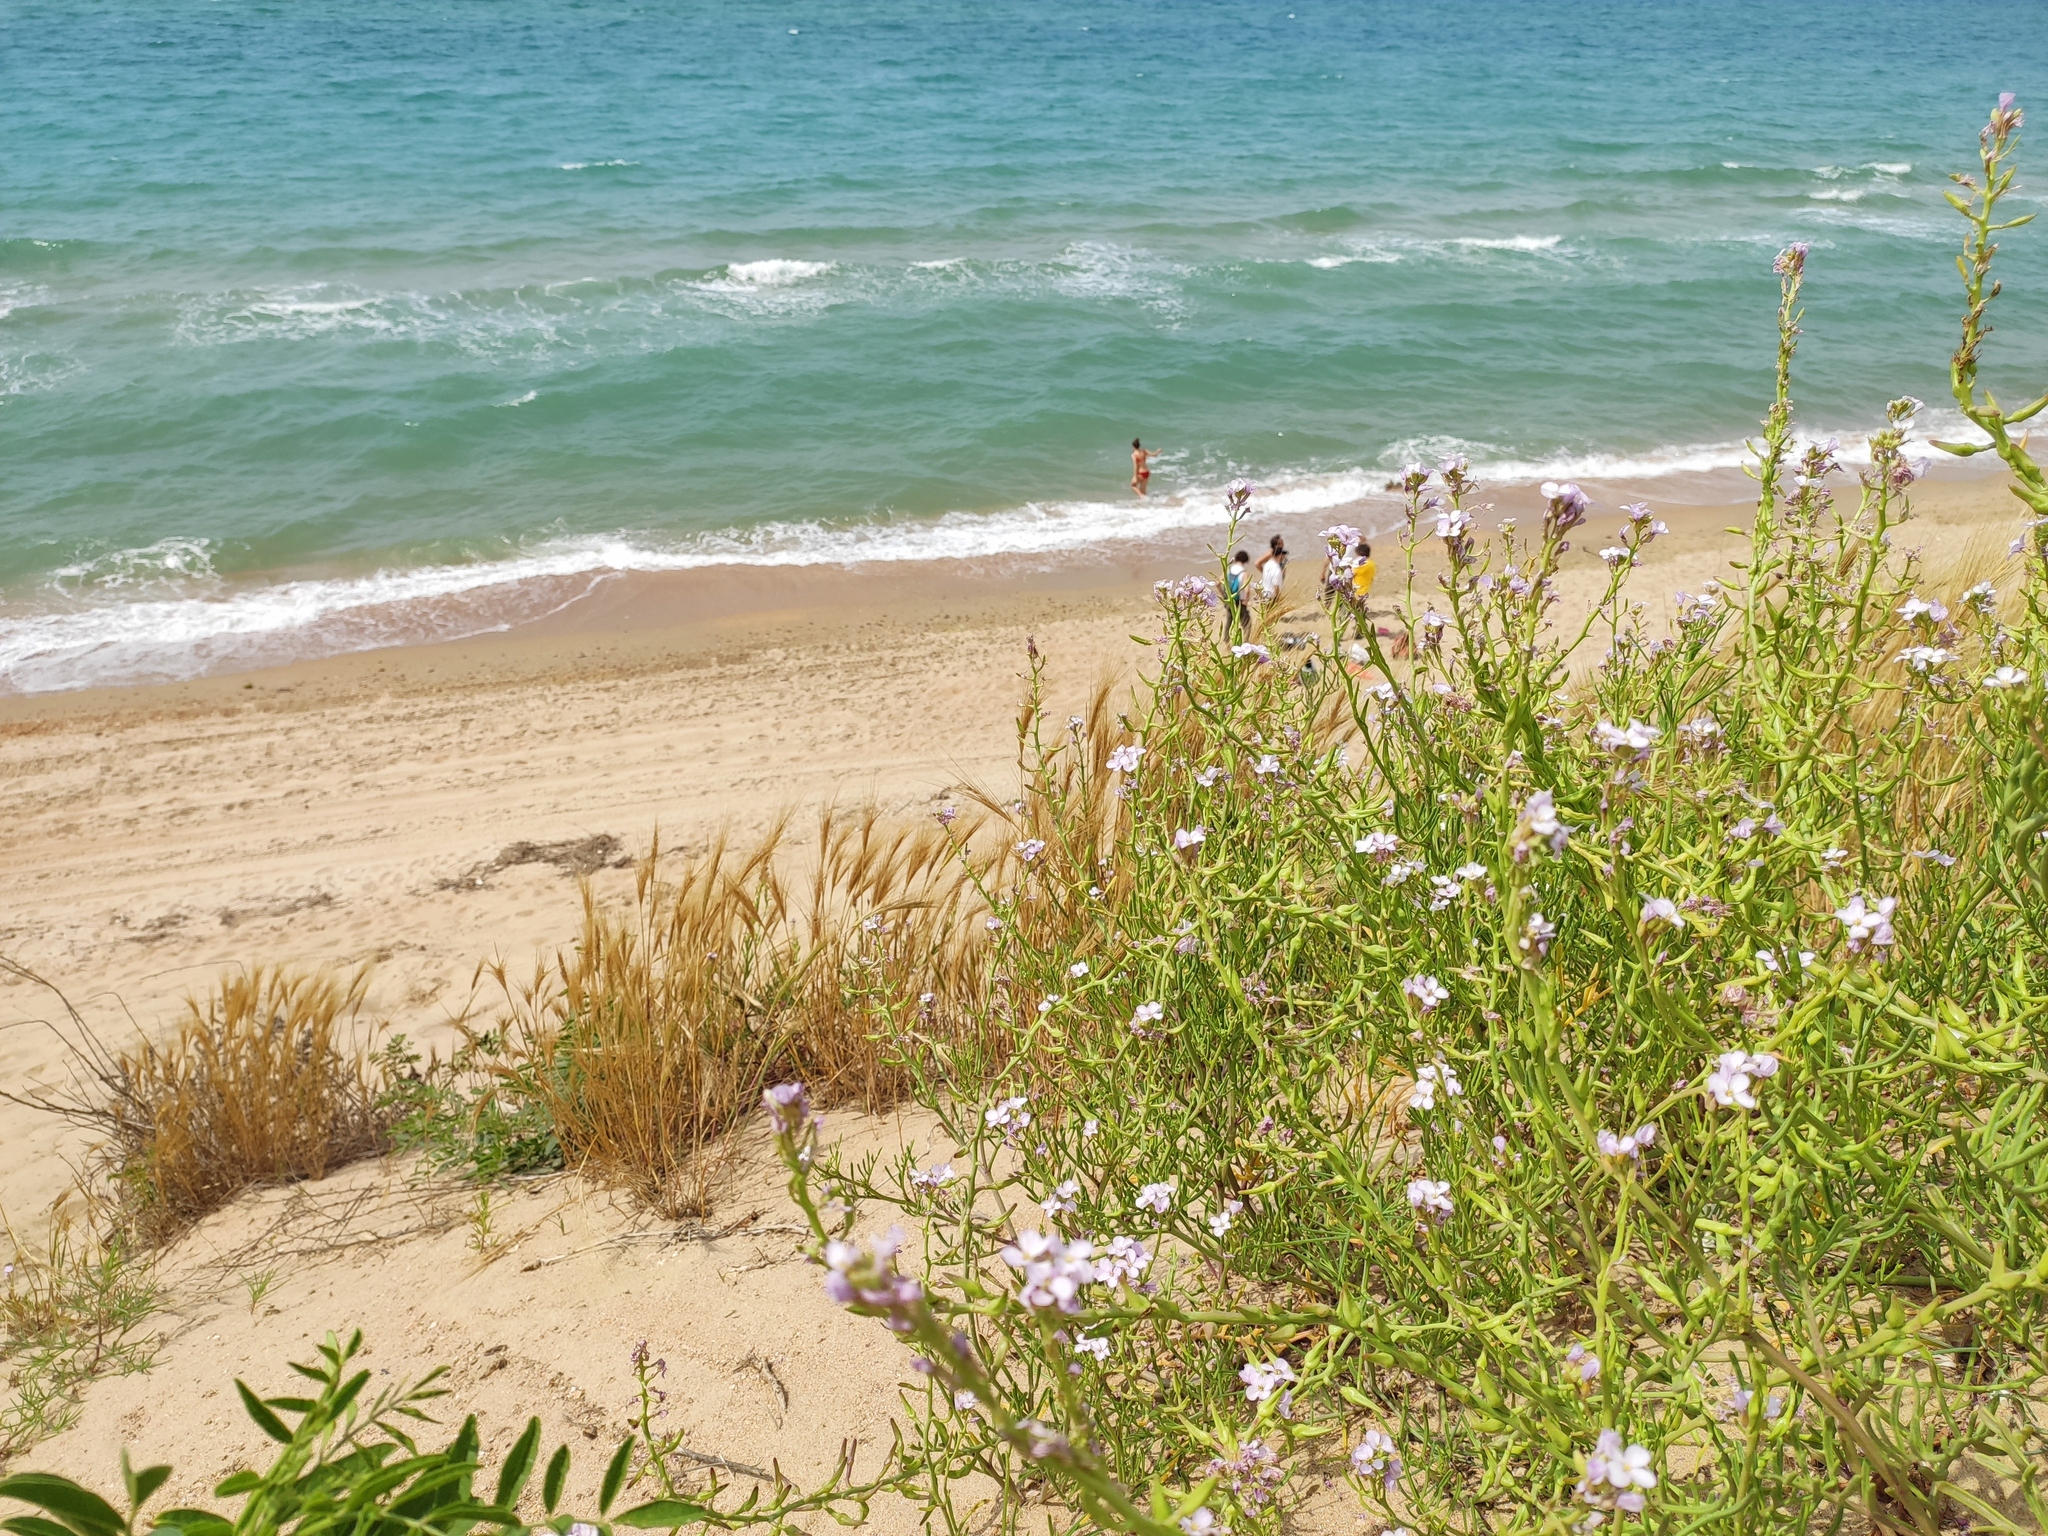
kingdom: Plantae
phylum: Tracheophyta
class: Magnoliopsida
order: Brassicales
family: Brassicaceae
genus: Cakile
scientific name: Cakile maritima
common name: Sea rocket
